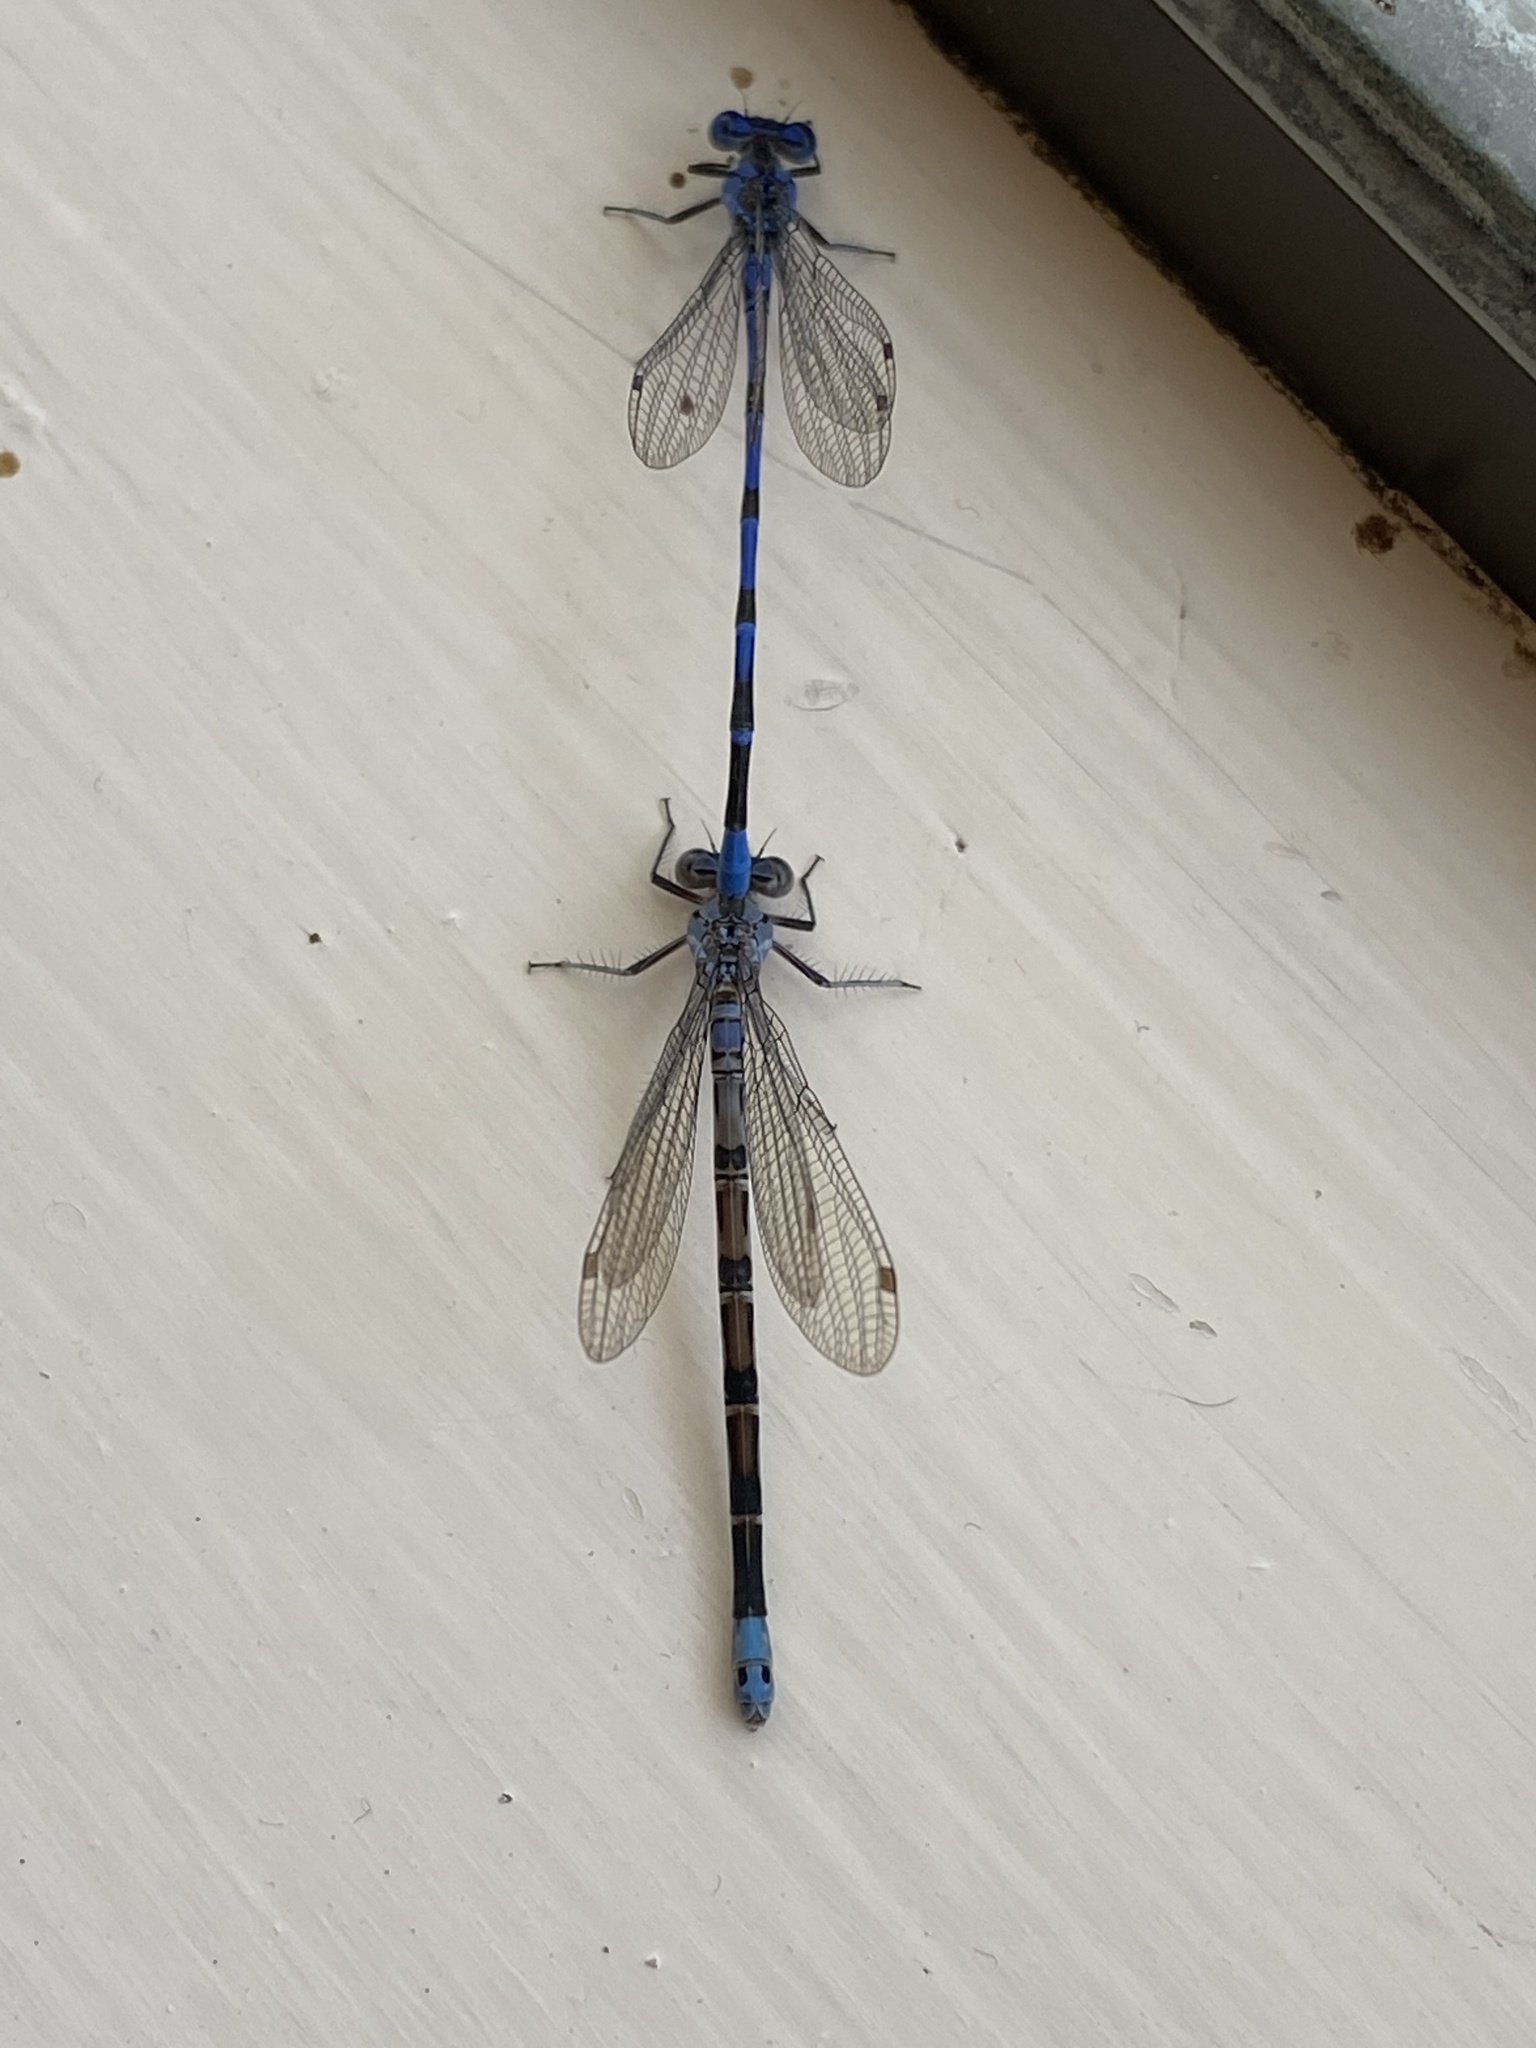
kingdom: Animalia
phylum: Arthropoda
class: Insecta
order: Odonata
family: Coenagrionidae
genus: Argia
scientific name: Argia vivida
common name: Vivid dancer
